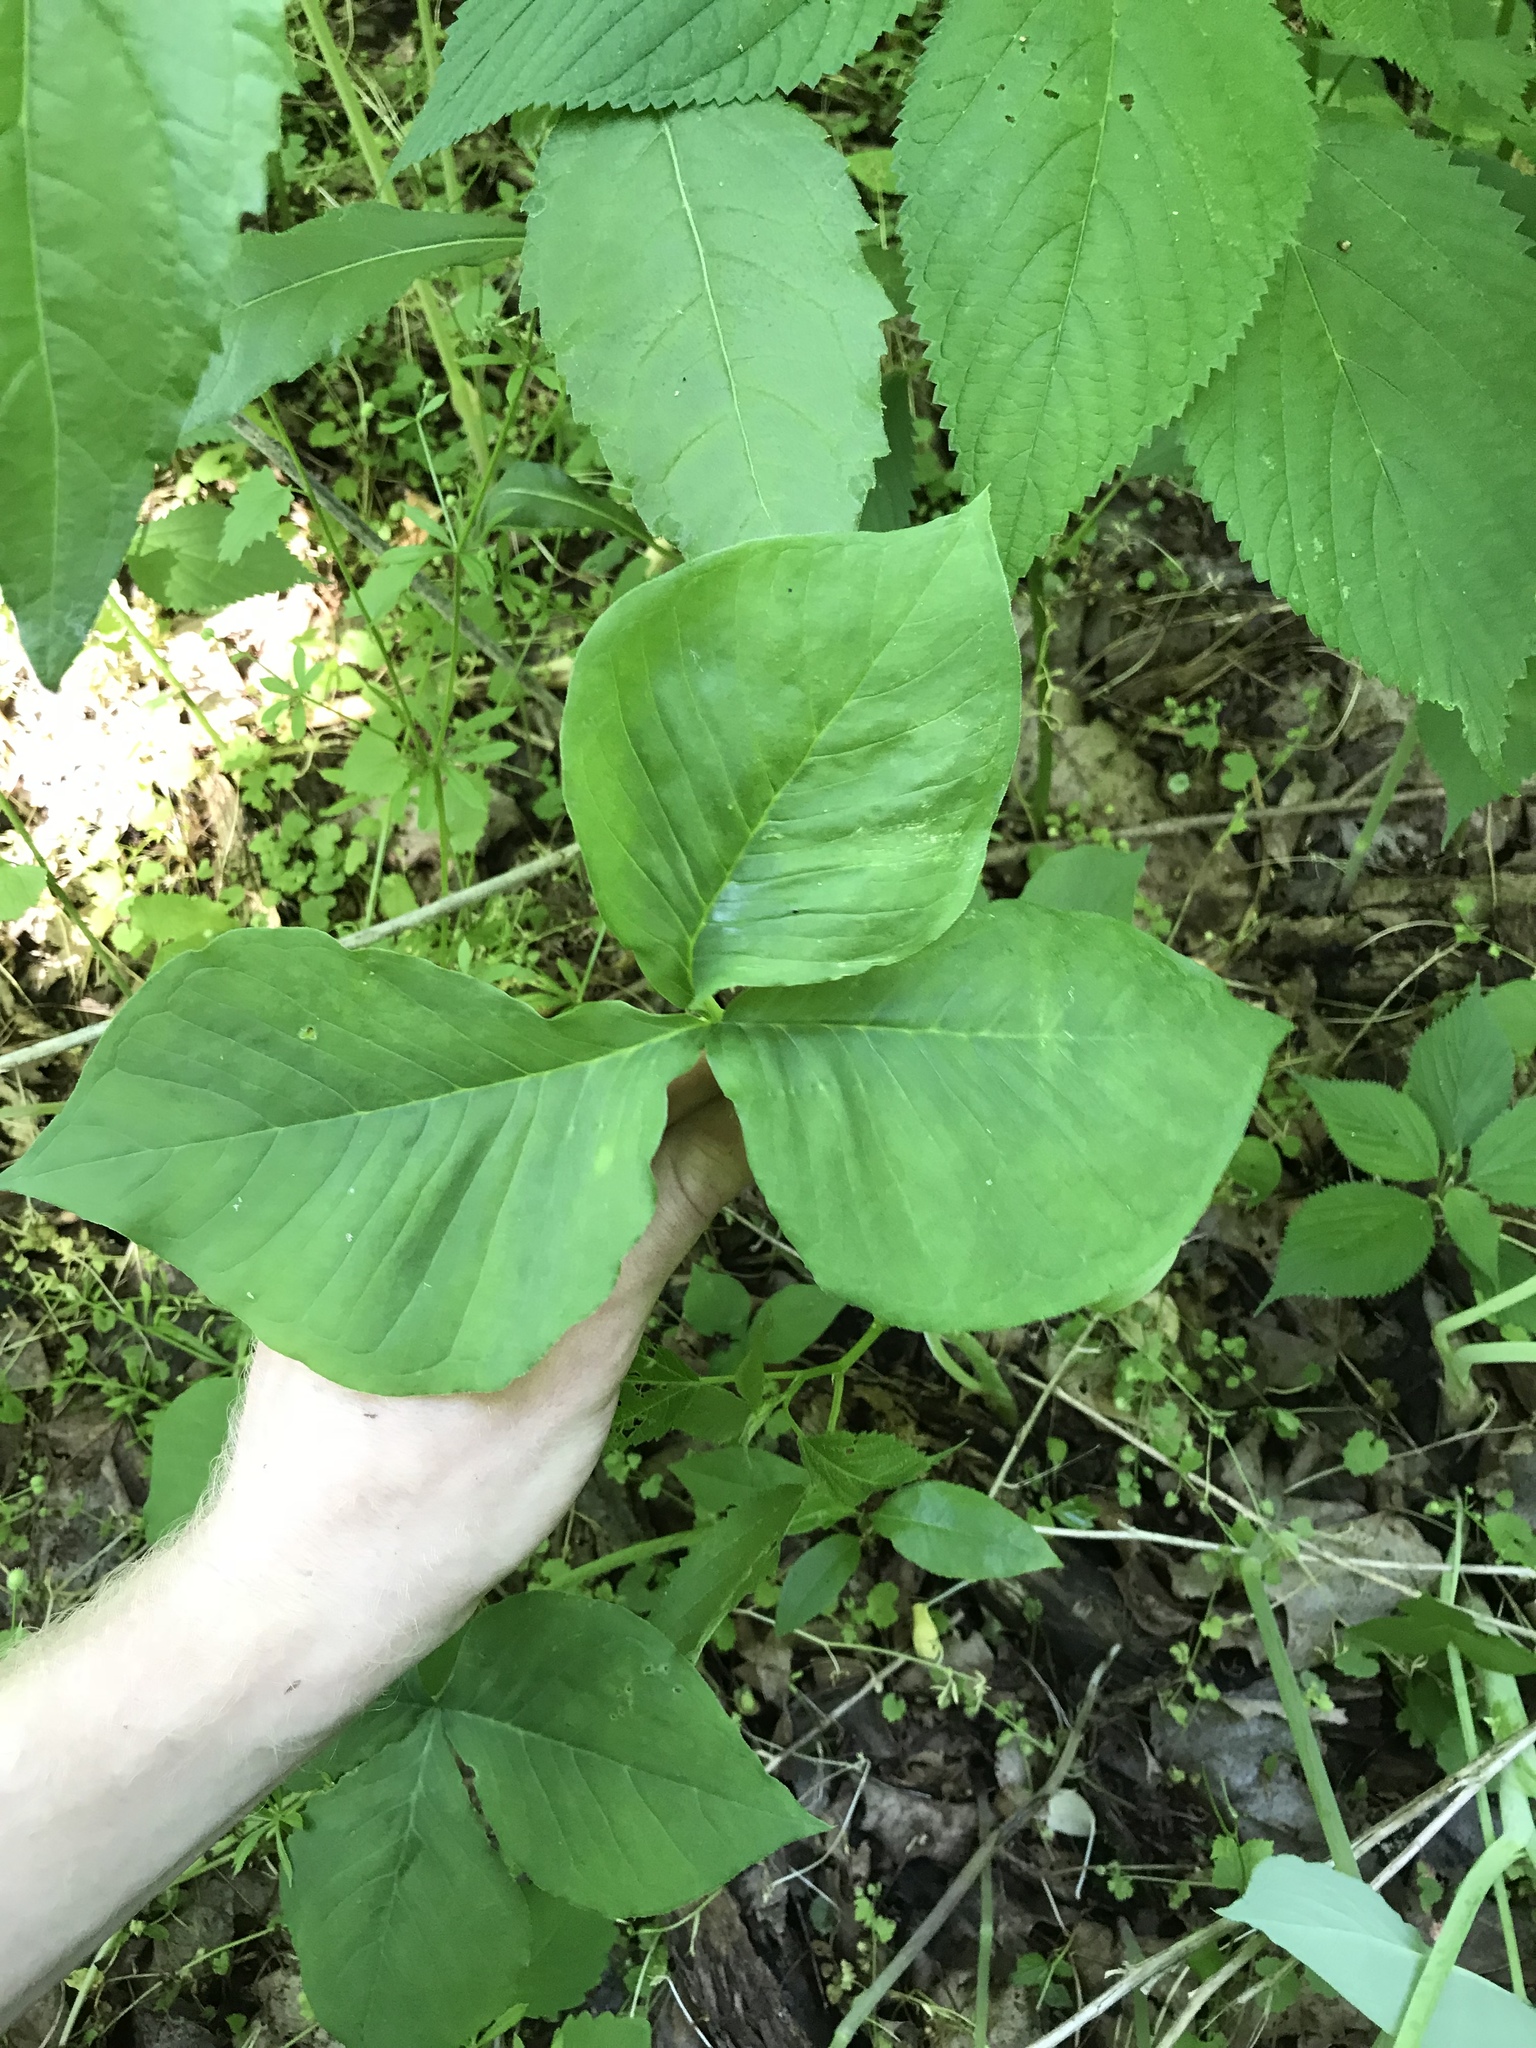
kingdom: Plantae
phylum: Tracheophyta
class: Liliopsida
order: Alismatales
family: Araceae
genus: Arisaema
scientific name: Arisaema triphyllum
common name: Jack-in-the-pulpit
